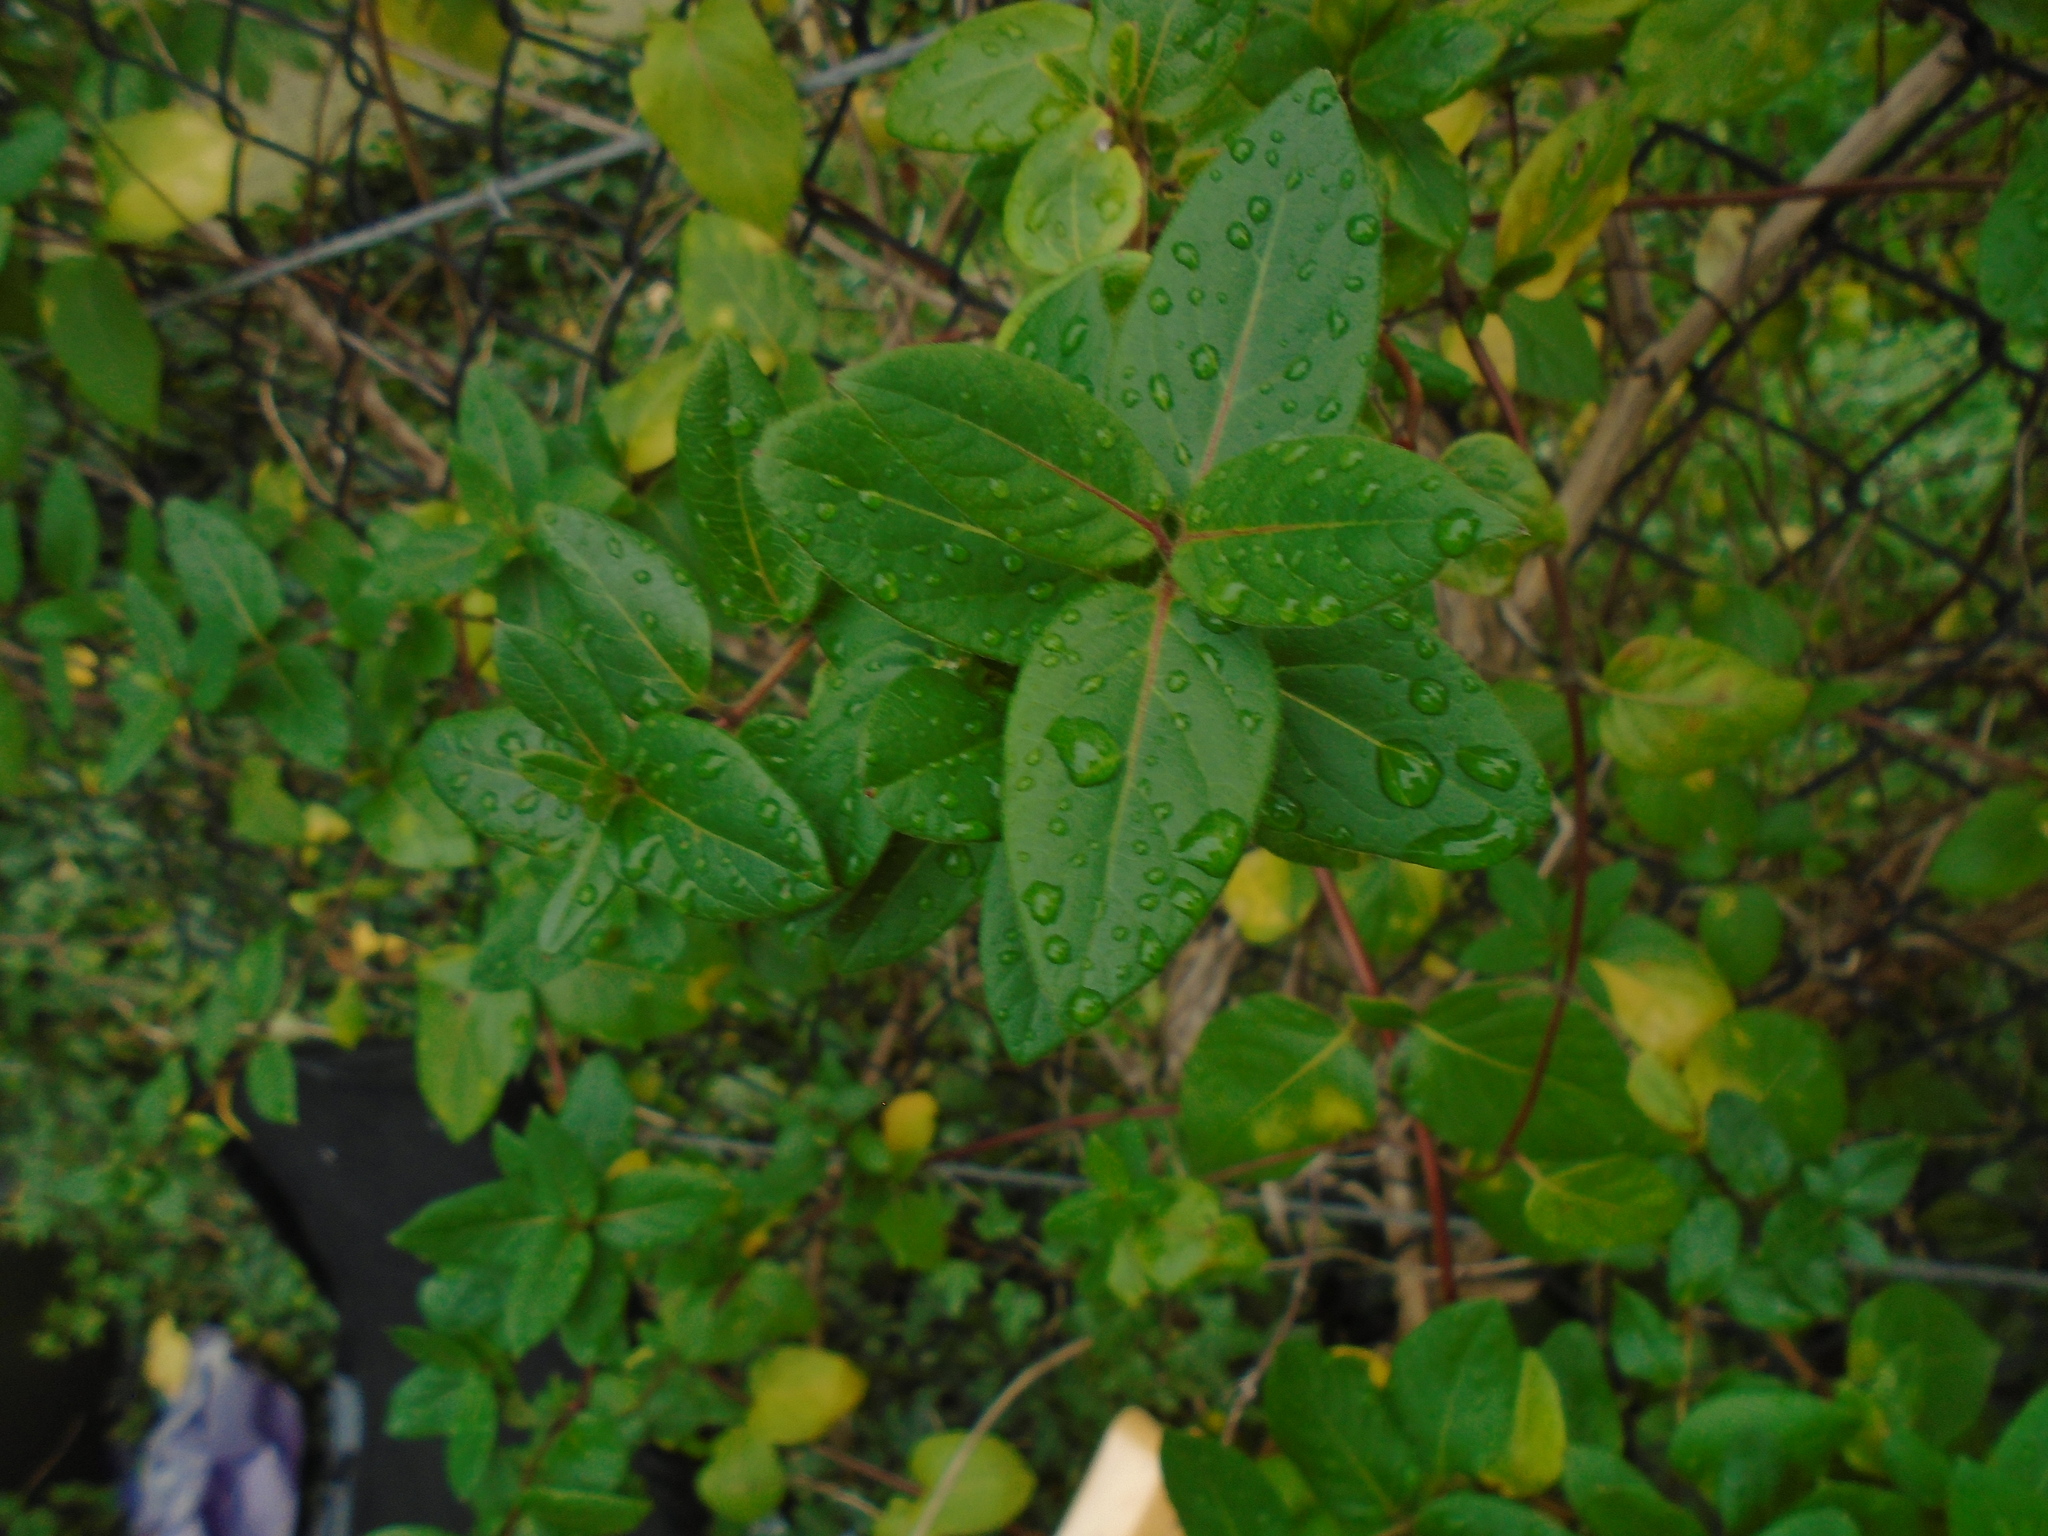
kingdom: Plantae
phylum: Tracheophyta
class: Magnoliopsida
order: Dipsacales
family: Caprifoliaceae
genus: Lonicera
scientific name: Lonicera japonica
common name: Japanese honeysuckle
